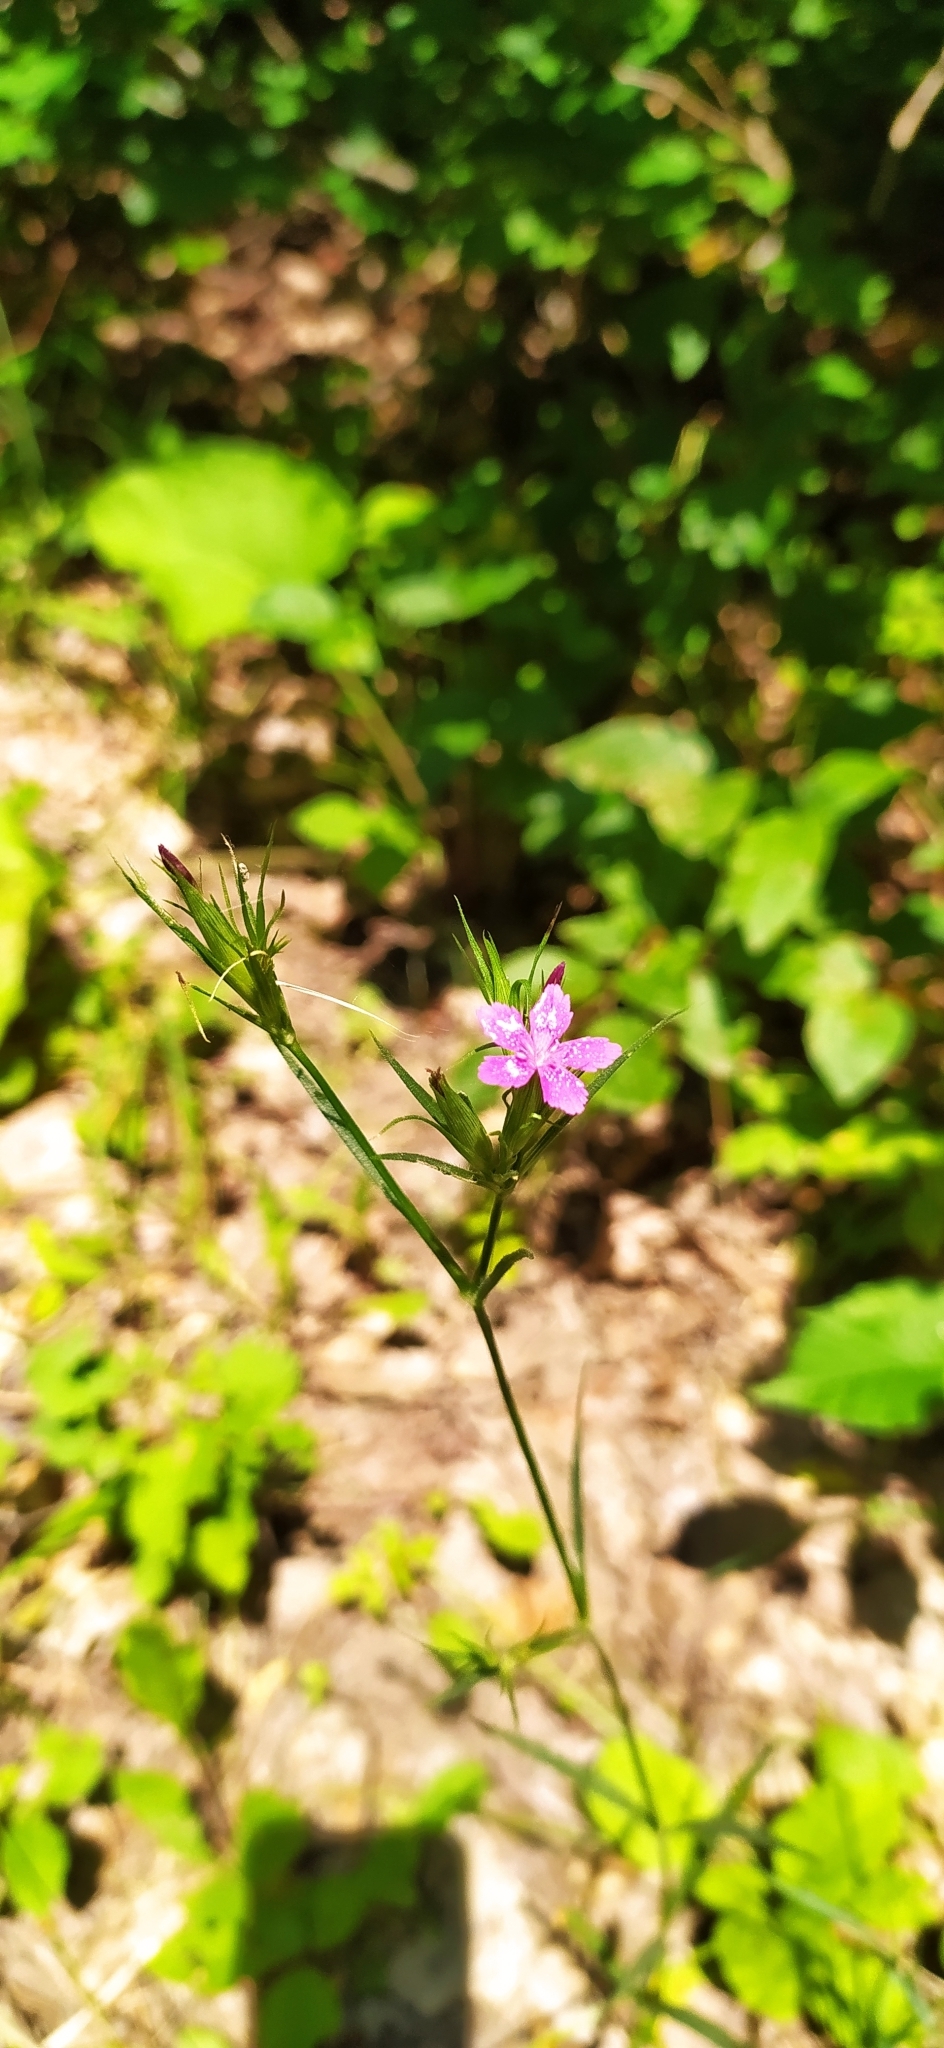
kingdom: Plantae
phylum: Tracheophyta
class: Magnoliopsida
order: Caryophyllales
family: Caryophyllaceae
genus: Dianthus
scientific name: Dianthus armeria
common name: Deptford pink
